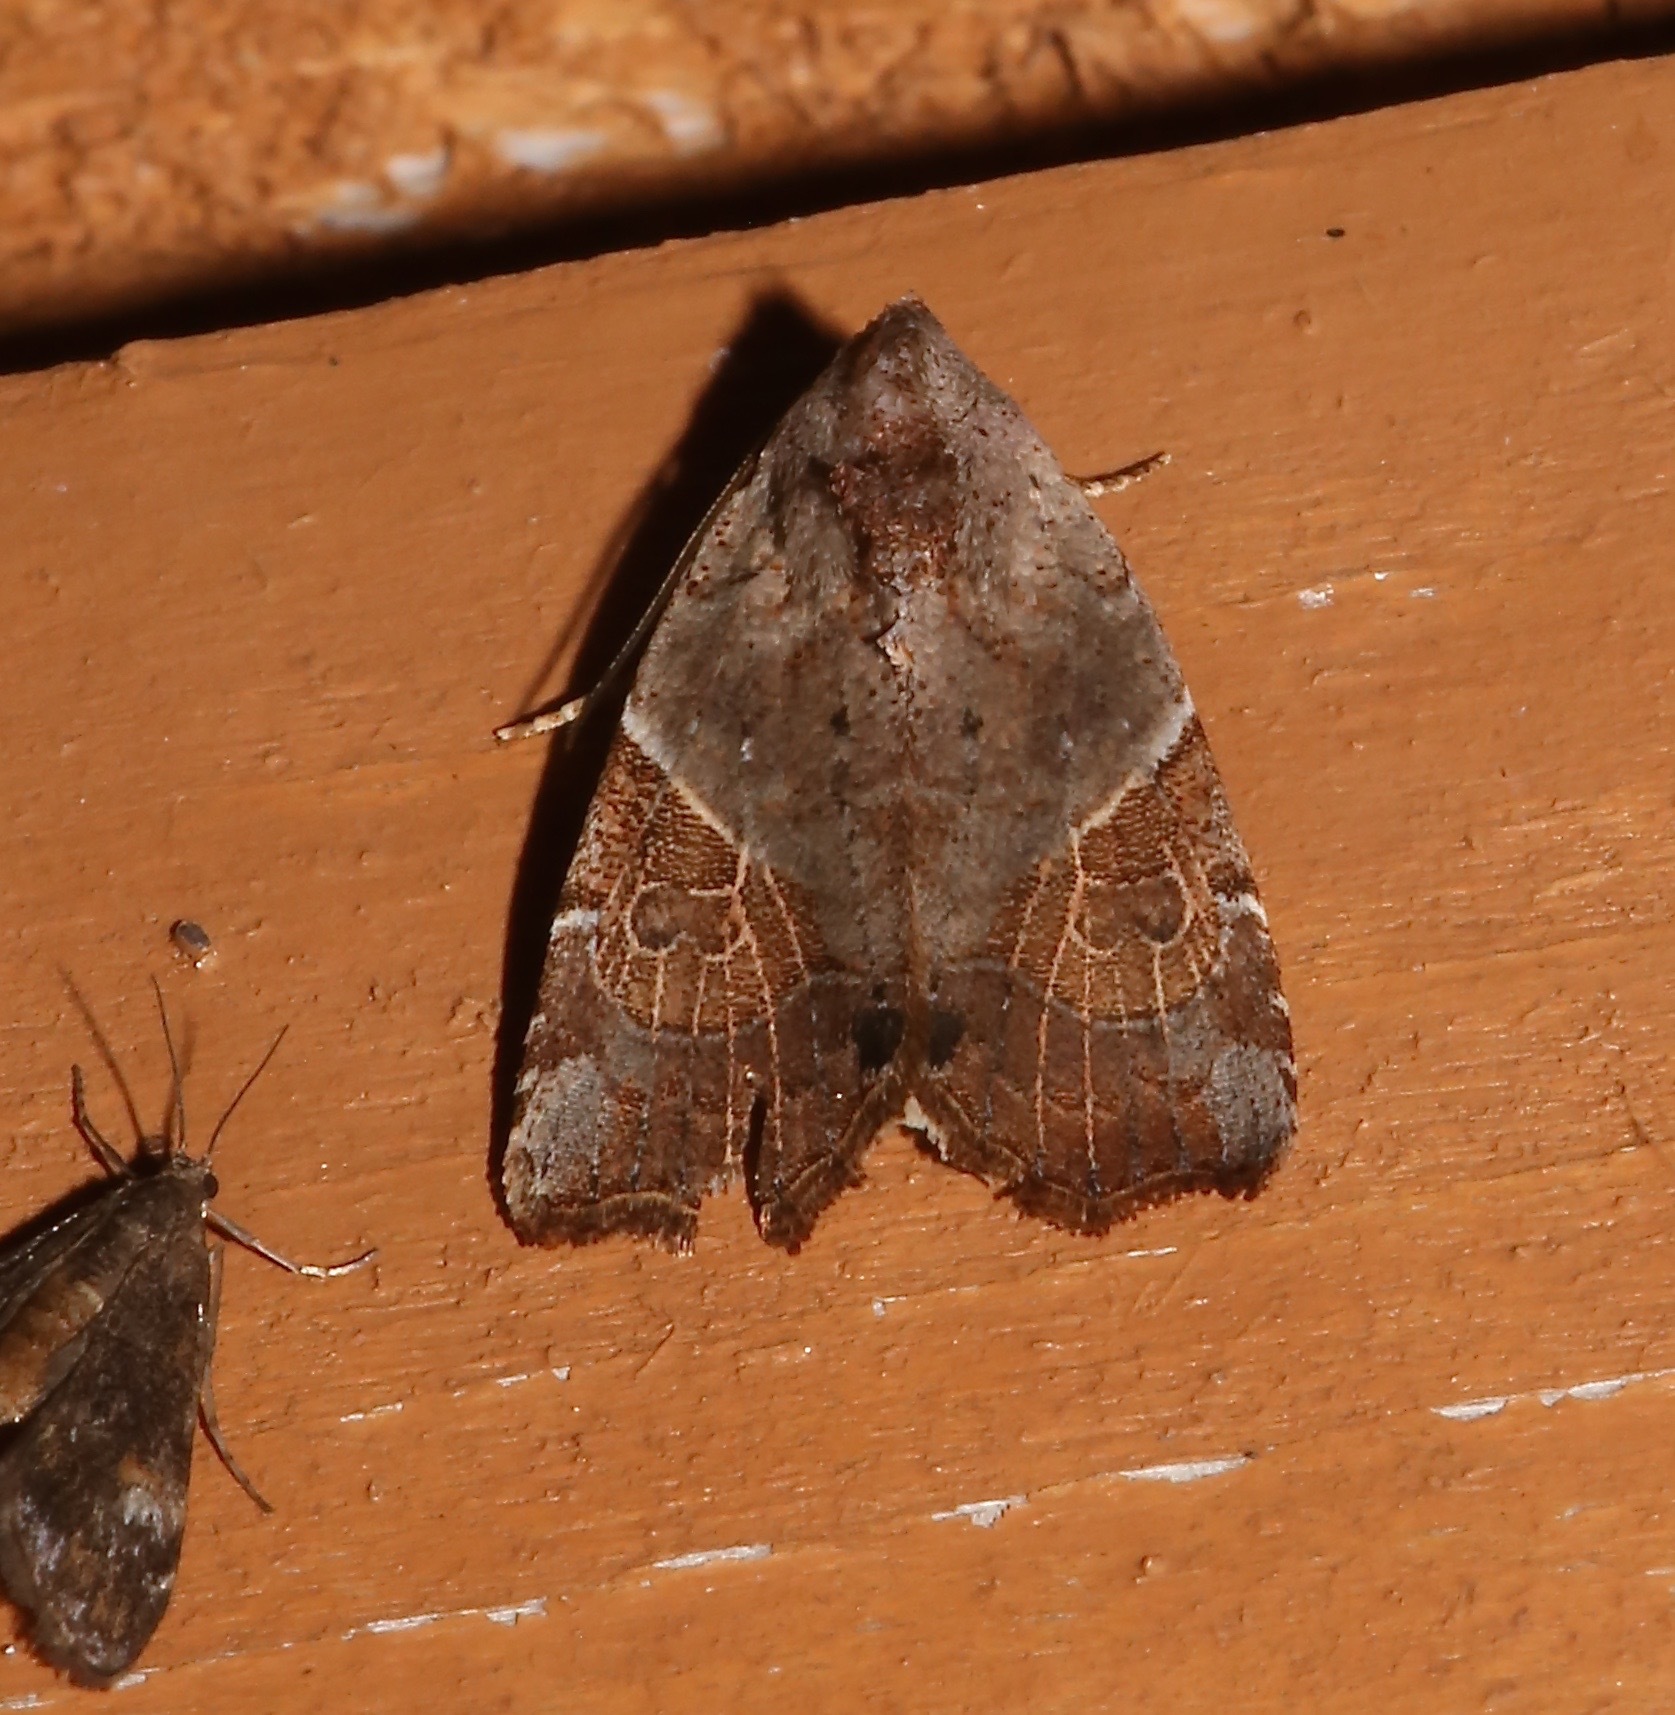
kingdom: Animalia
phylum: Arthropoda
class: Insecta
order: Lepidoptera
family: Noctuidae
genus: Gonodes
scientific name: Gonodes liquida
